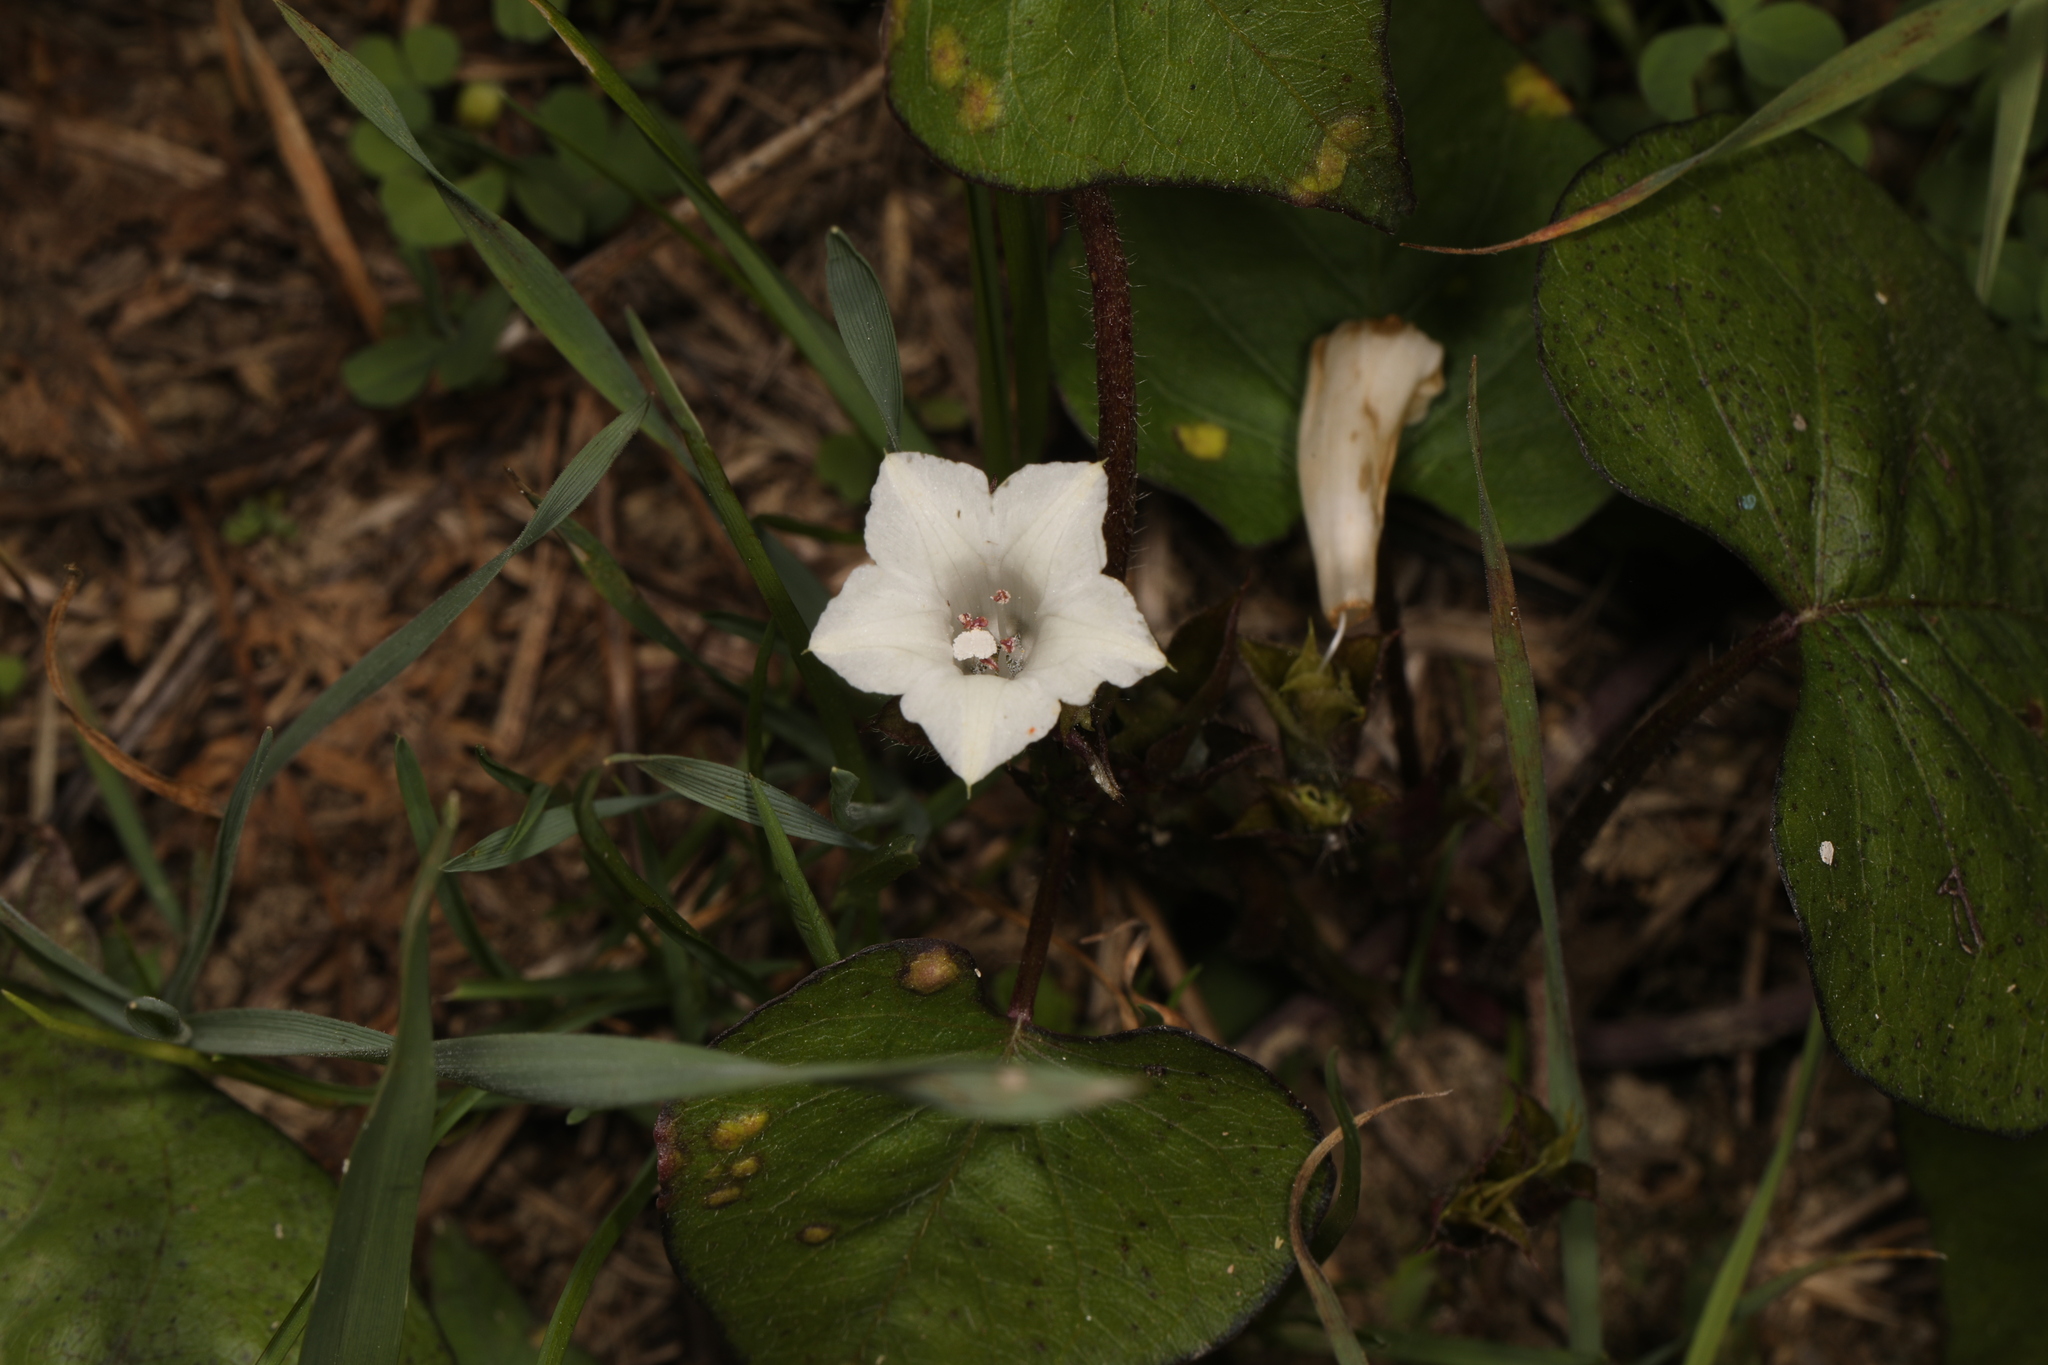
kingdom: Plantae
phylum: Tracheophyta
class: Magnoliopsida
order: Solanales
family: Convolvulaceae
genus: Ipomoea
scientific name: Ipomoea lacunosa
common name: White morning-glory
